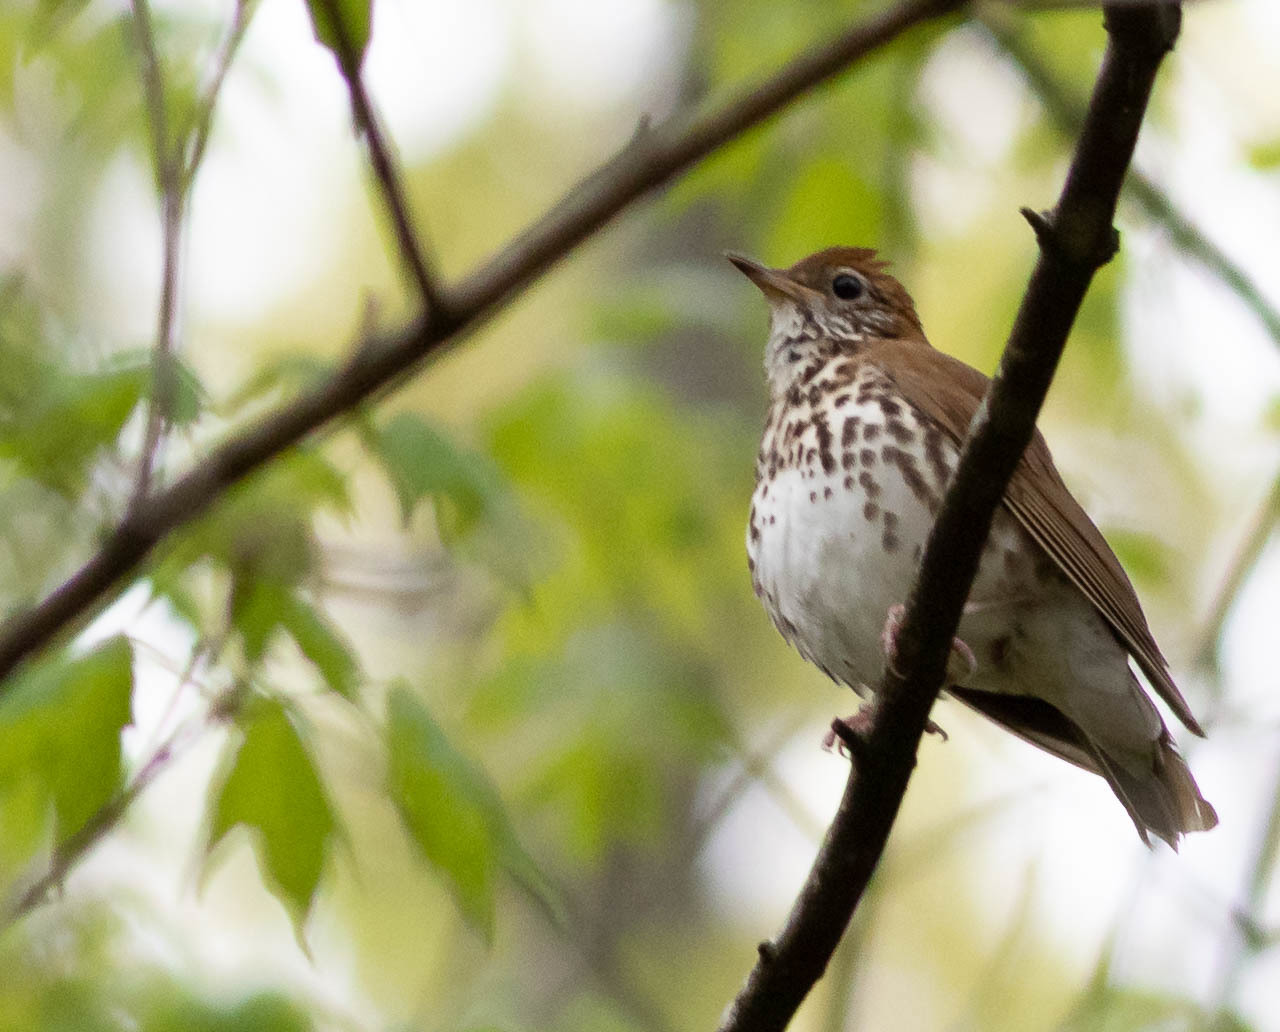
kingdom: Animalia
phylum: Chordata
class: Aves
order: Passeriformes
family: Turdidae
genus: Hylocichla
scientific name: Hylocichla mustelina
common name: Wood thrush
